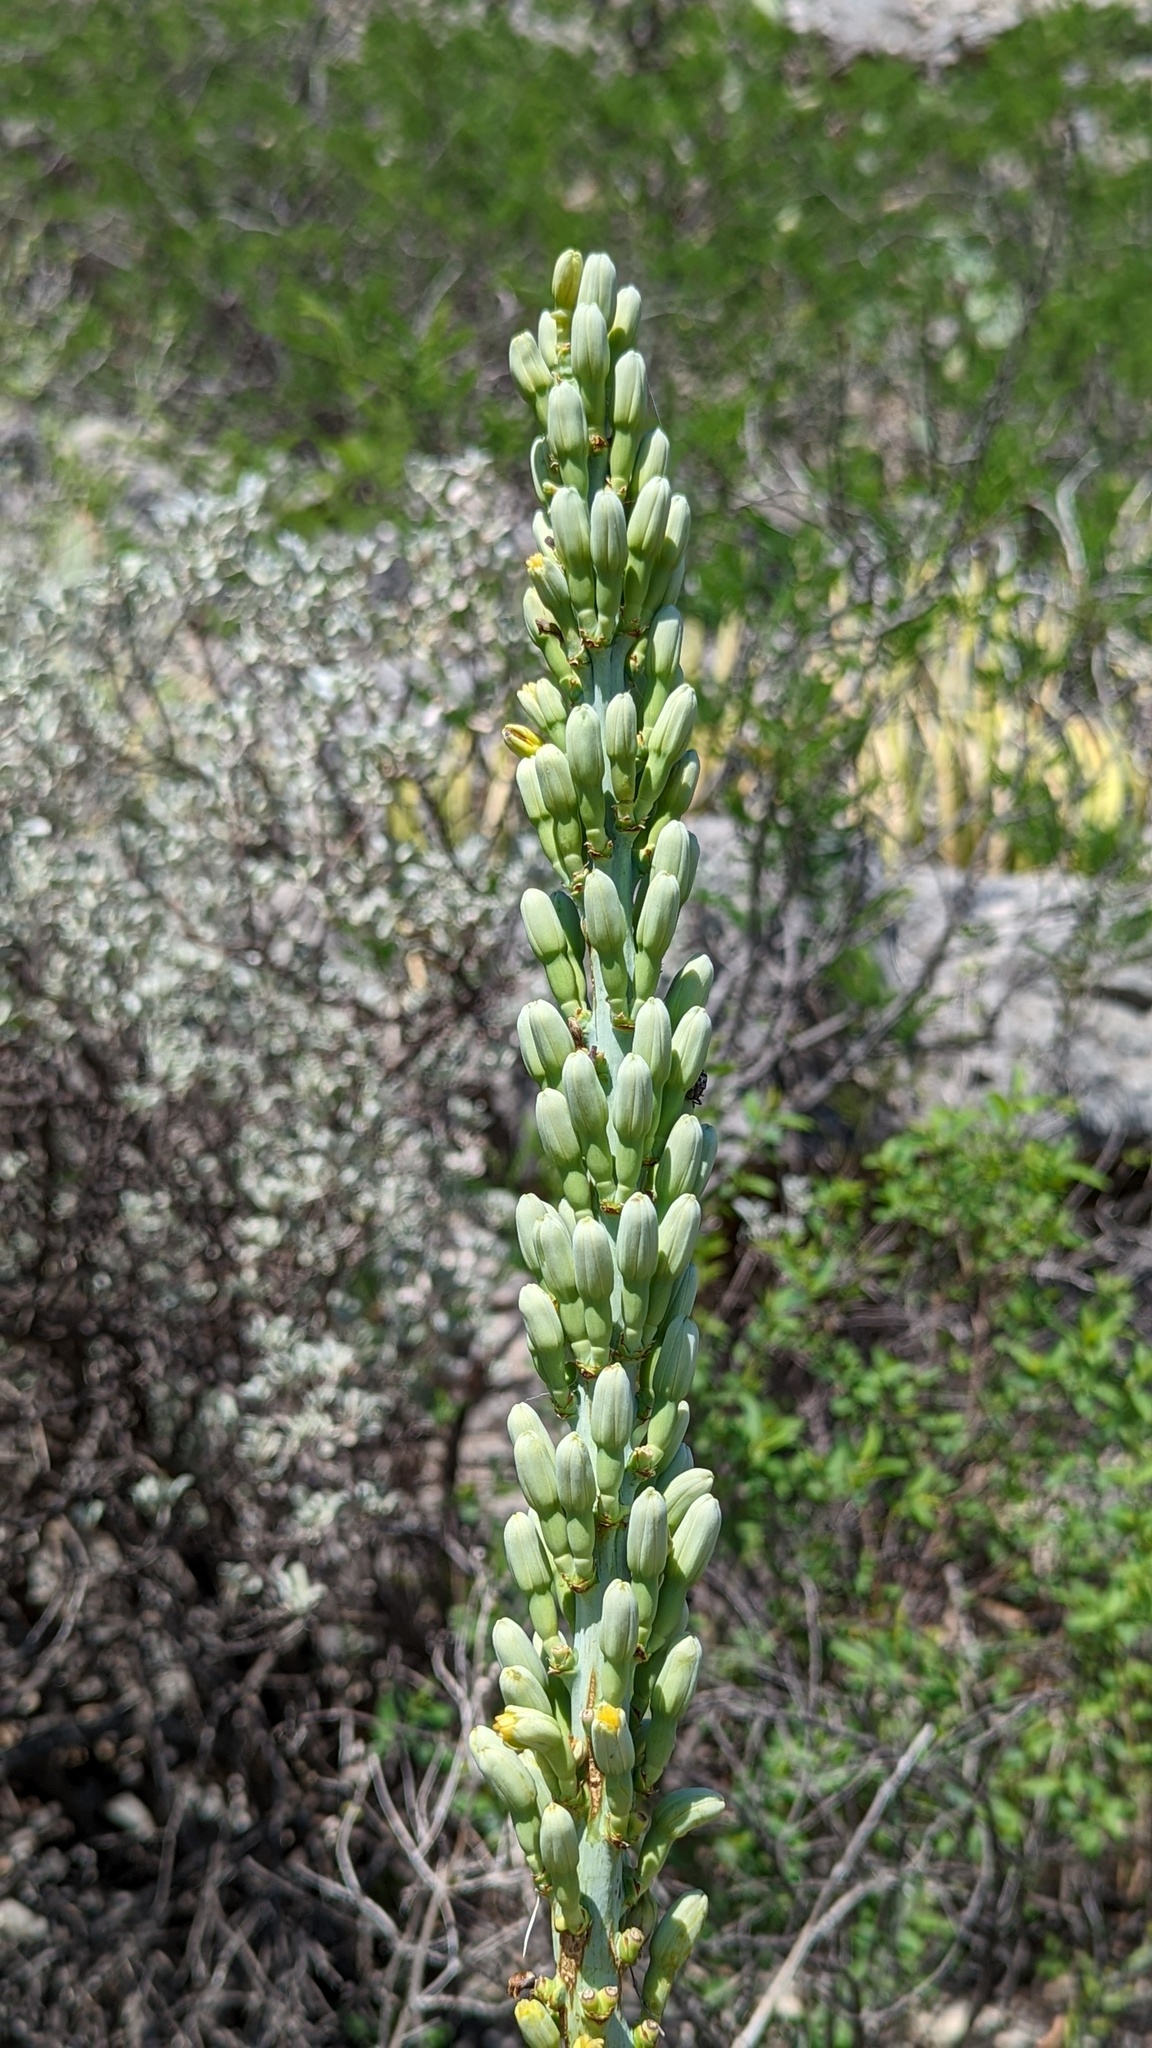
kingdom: Plantae
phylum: Tracheophyta
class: Liliopsida
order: Asparagales
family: Asparagaceae
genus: Agave
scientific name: Agave lechuguilla
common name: Lecheguilla agave
